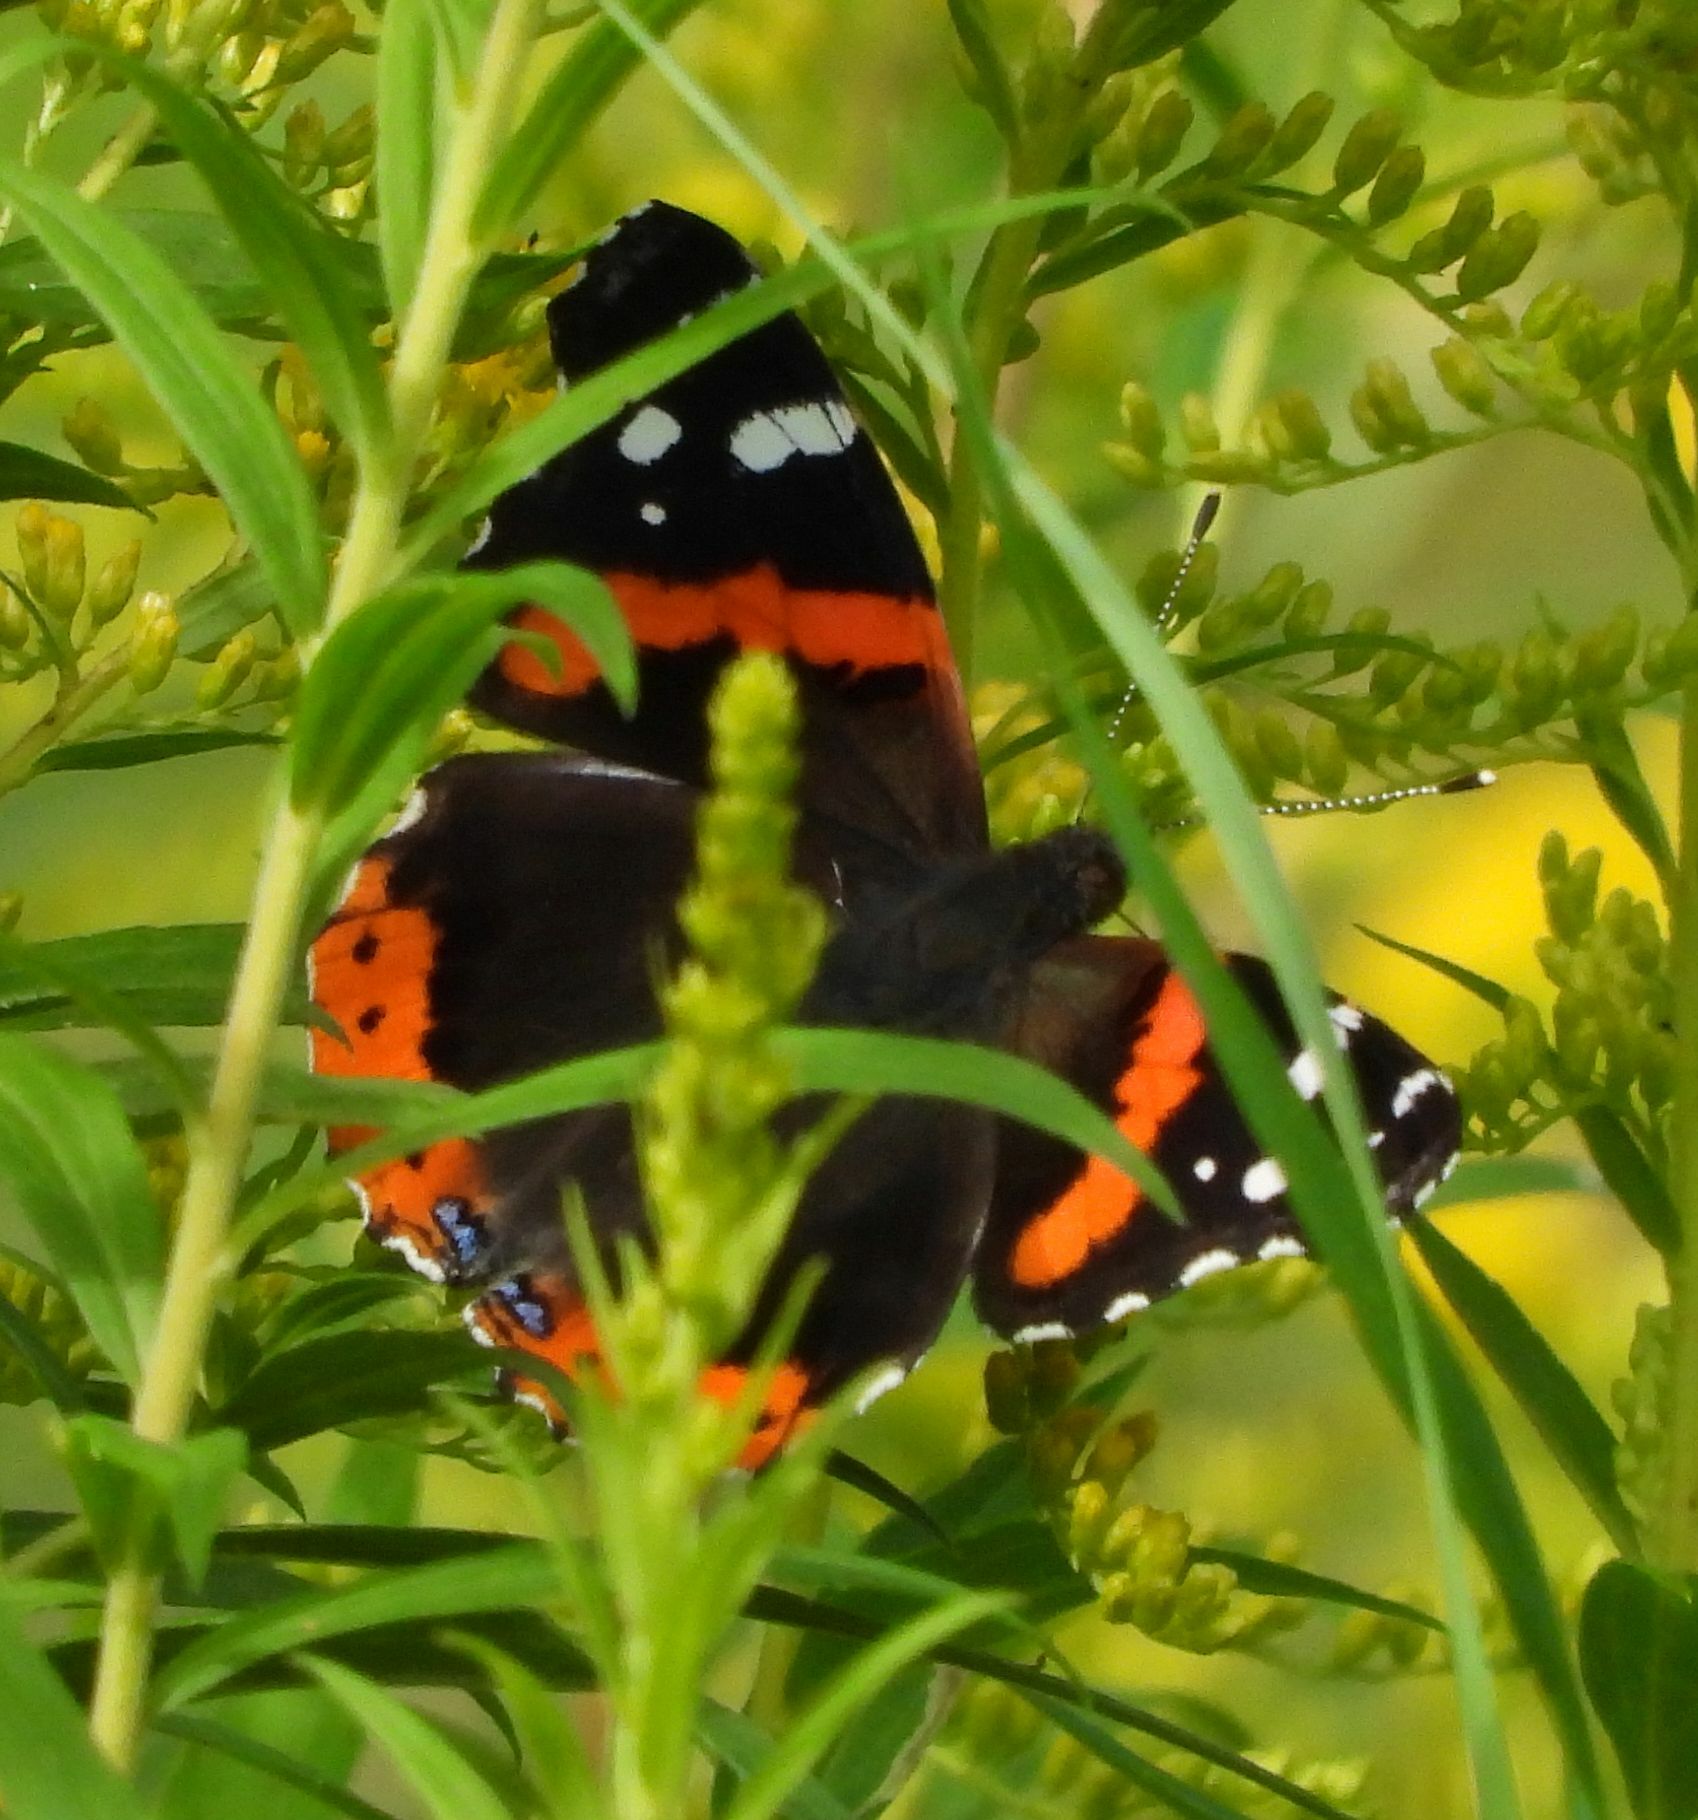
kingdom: Animalia
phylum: Arthropoda
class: Insecta
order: Lepidoptera
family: Nymphalidae
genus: Vanessa
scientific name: Vanessa atalanta
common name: Red admiral
